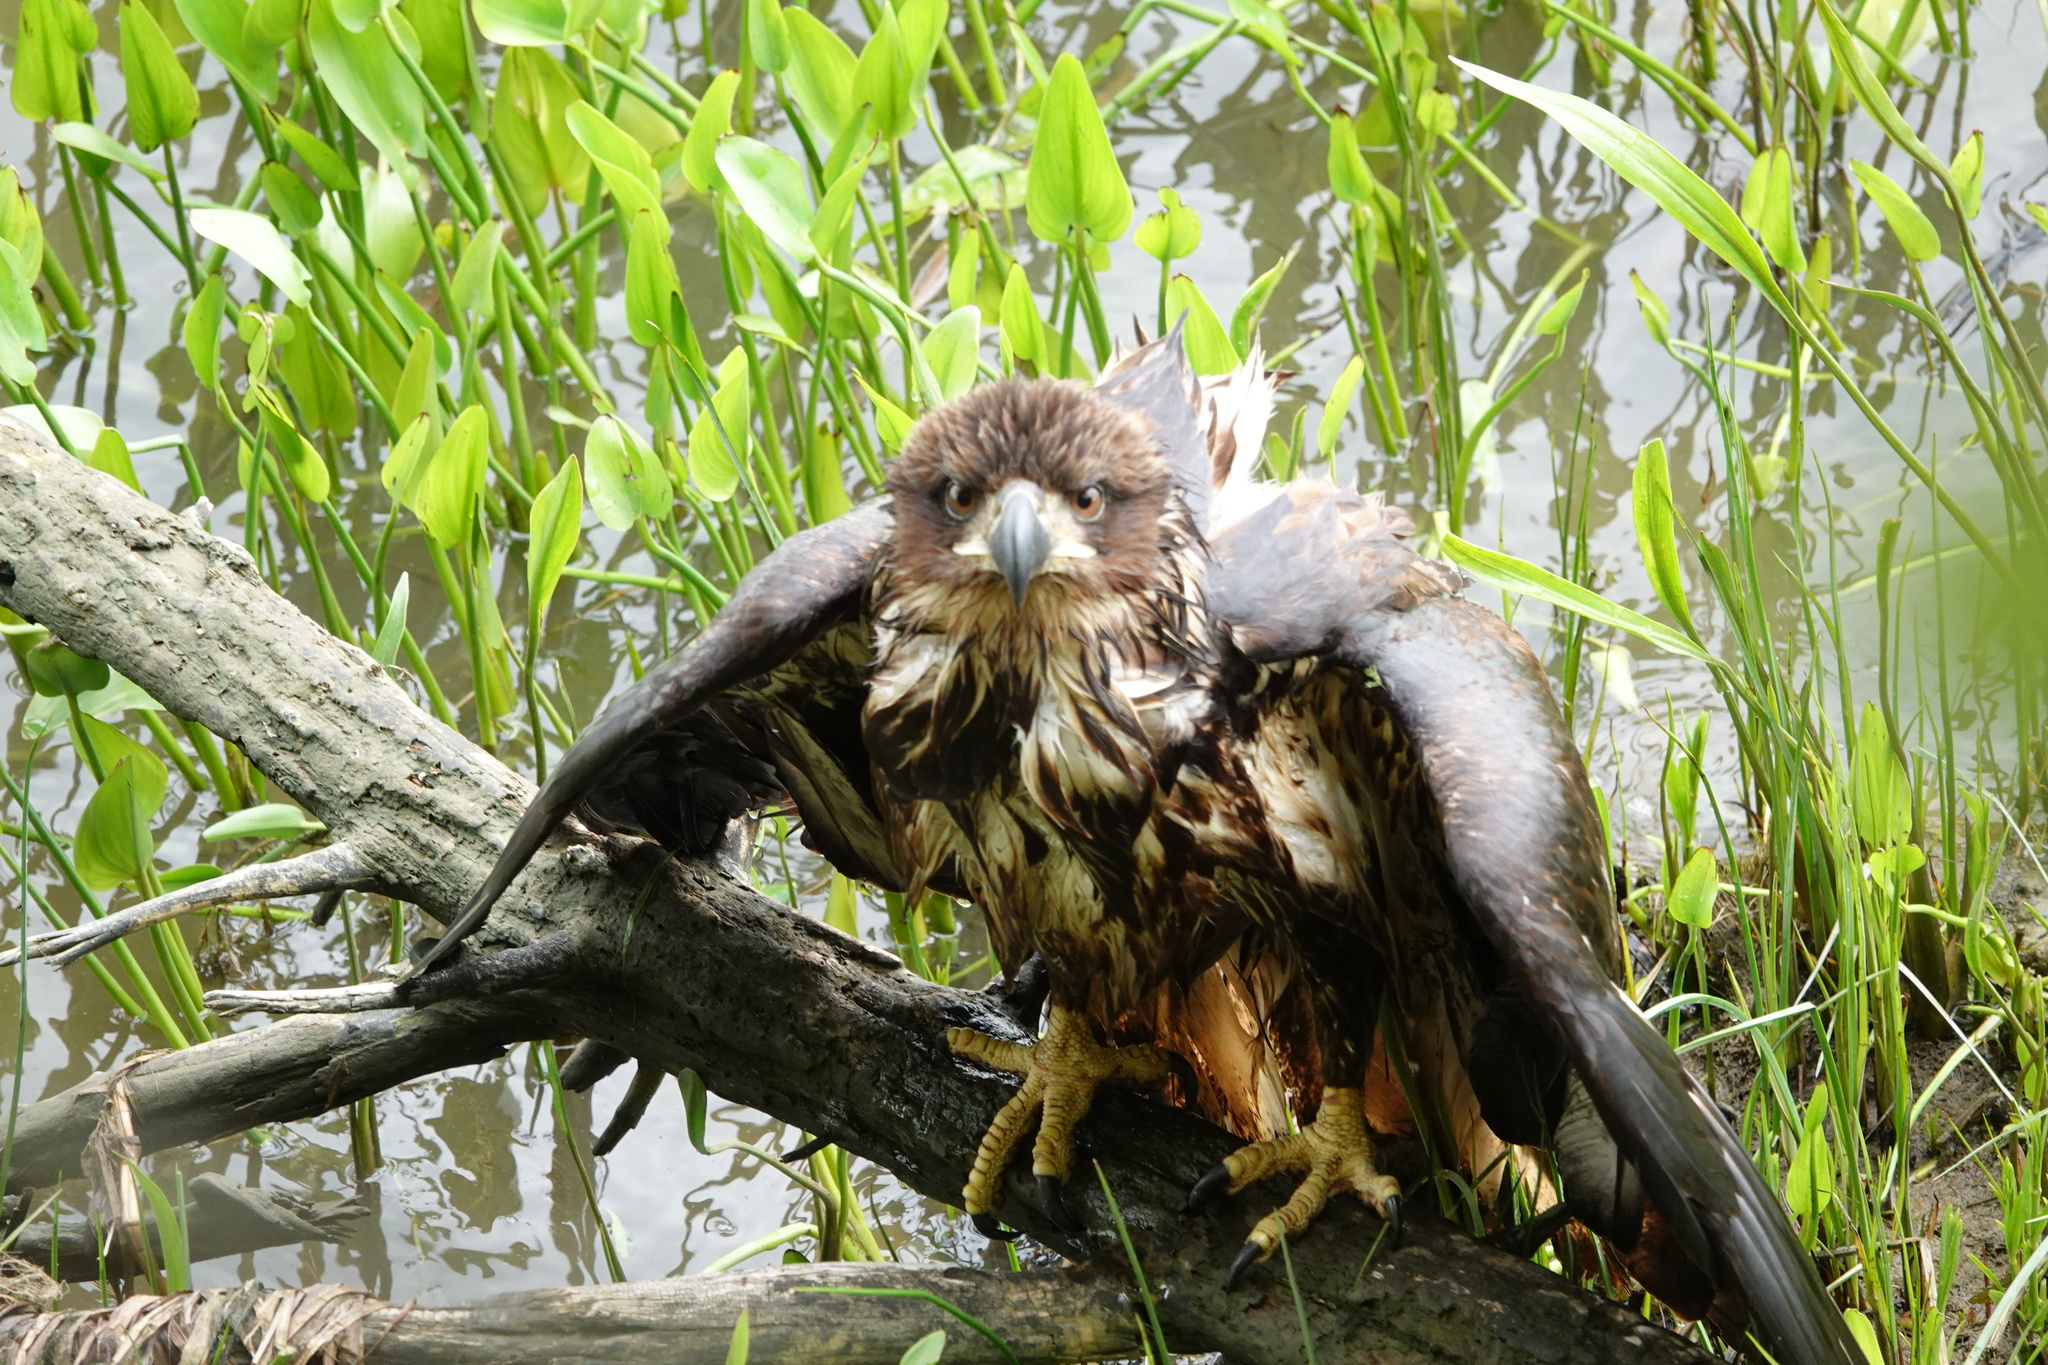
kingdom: Animalia
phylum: Chordata
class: Aves
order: Accipitriformes
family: Accipitridae
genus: Haliaeetus
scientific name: Haliaeetus leucocephalus
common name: Bald eagle
